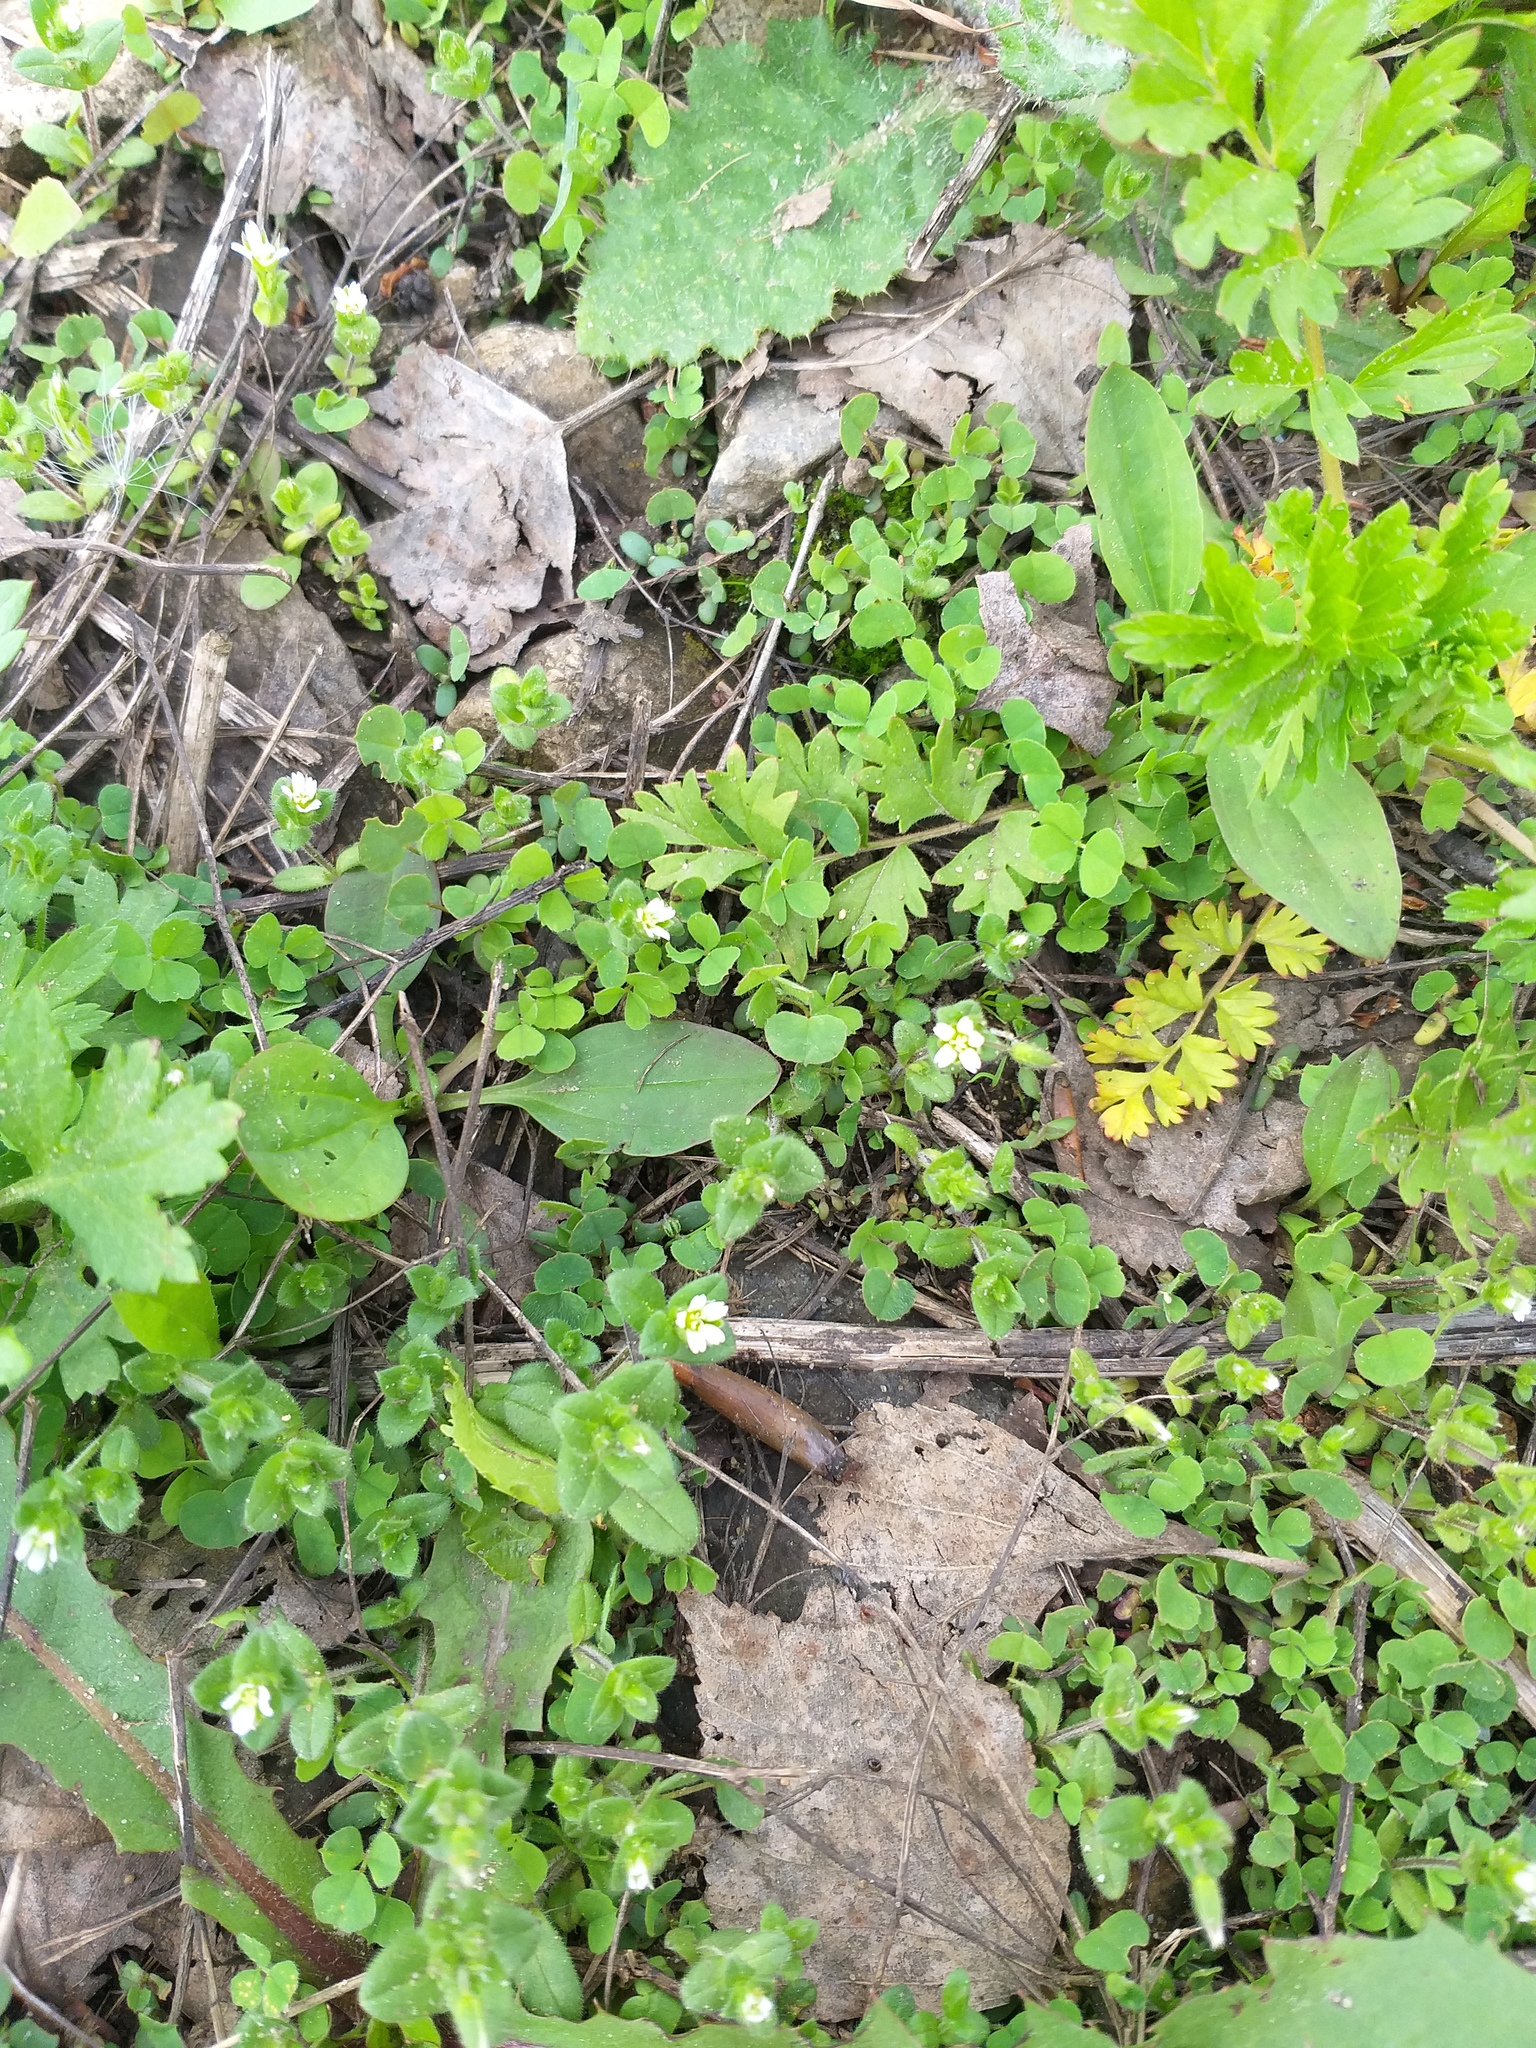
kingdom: Plantae
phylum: Tracheophyta
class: Magnoliopsida
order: Caryophyllales
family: Caryophyllaceae
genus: Cerastium
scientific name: Cerastium semidecandrum
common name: Little mouse-ear
